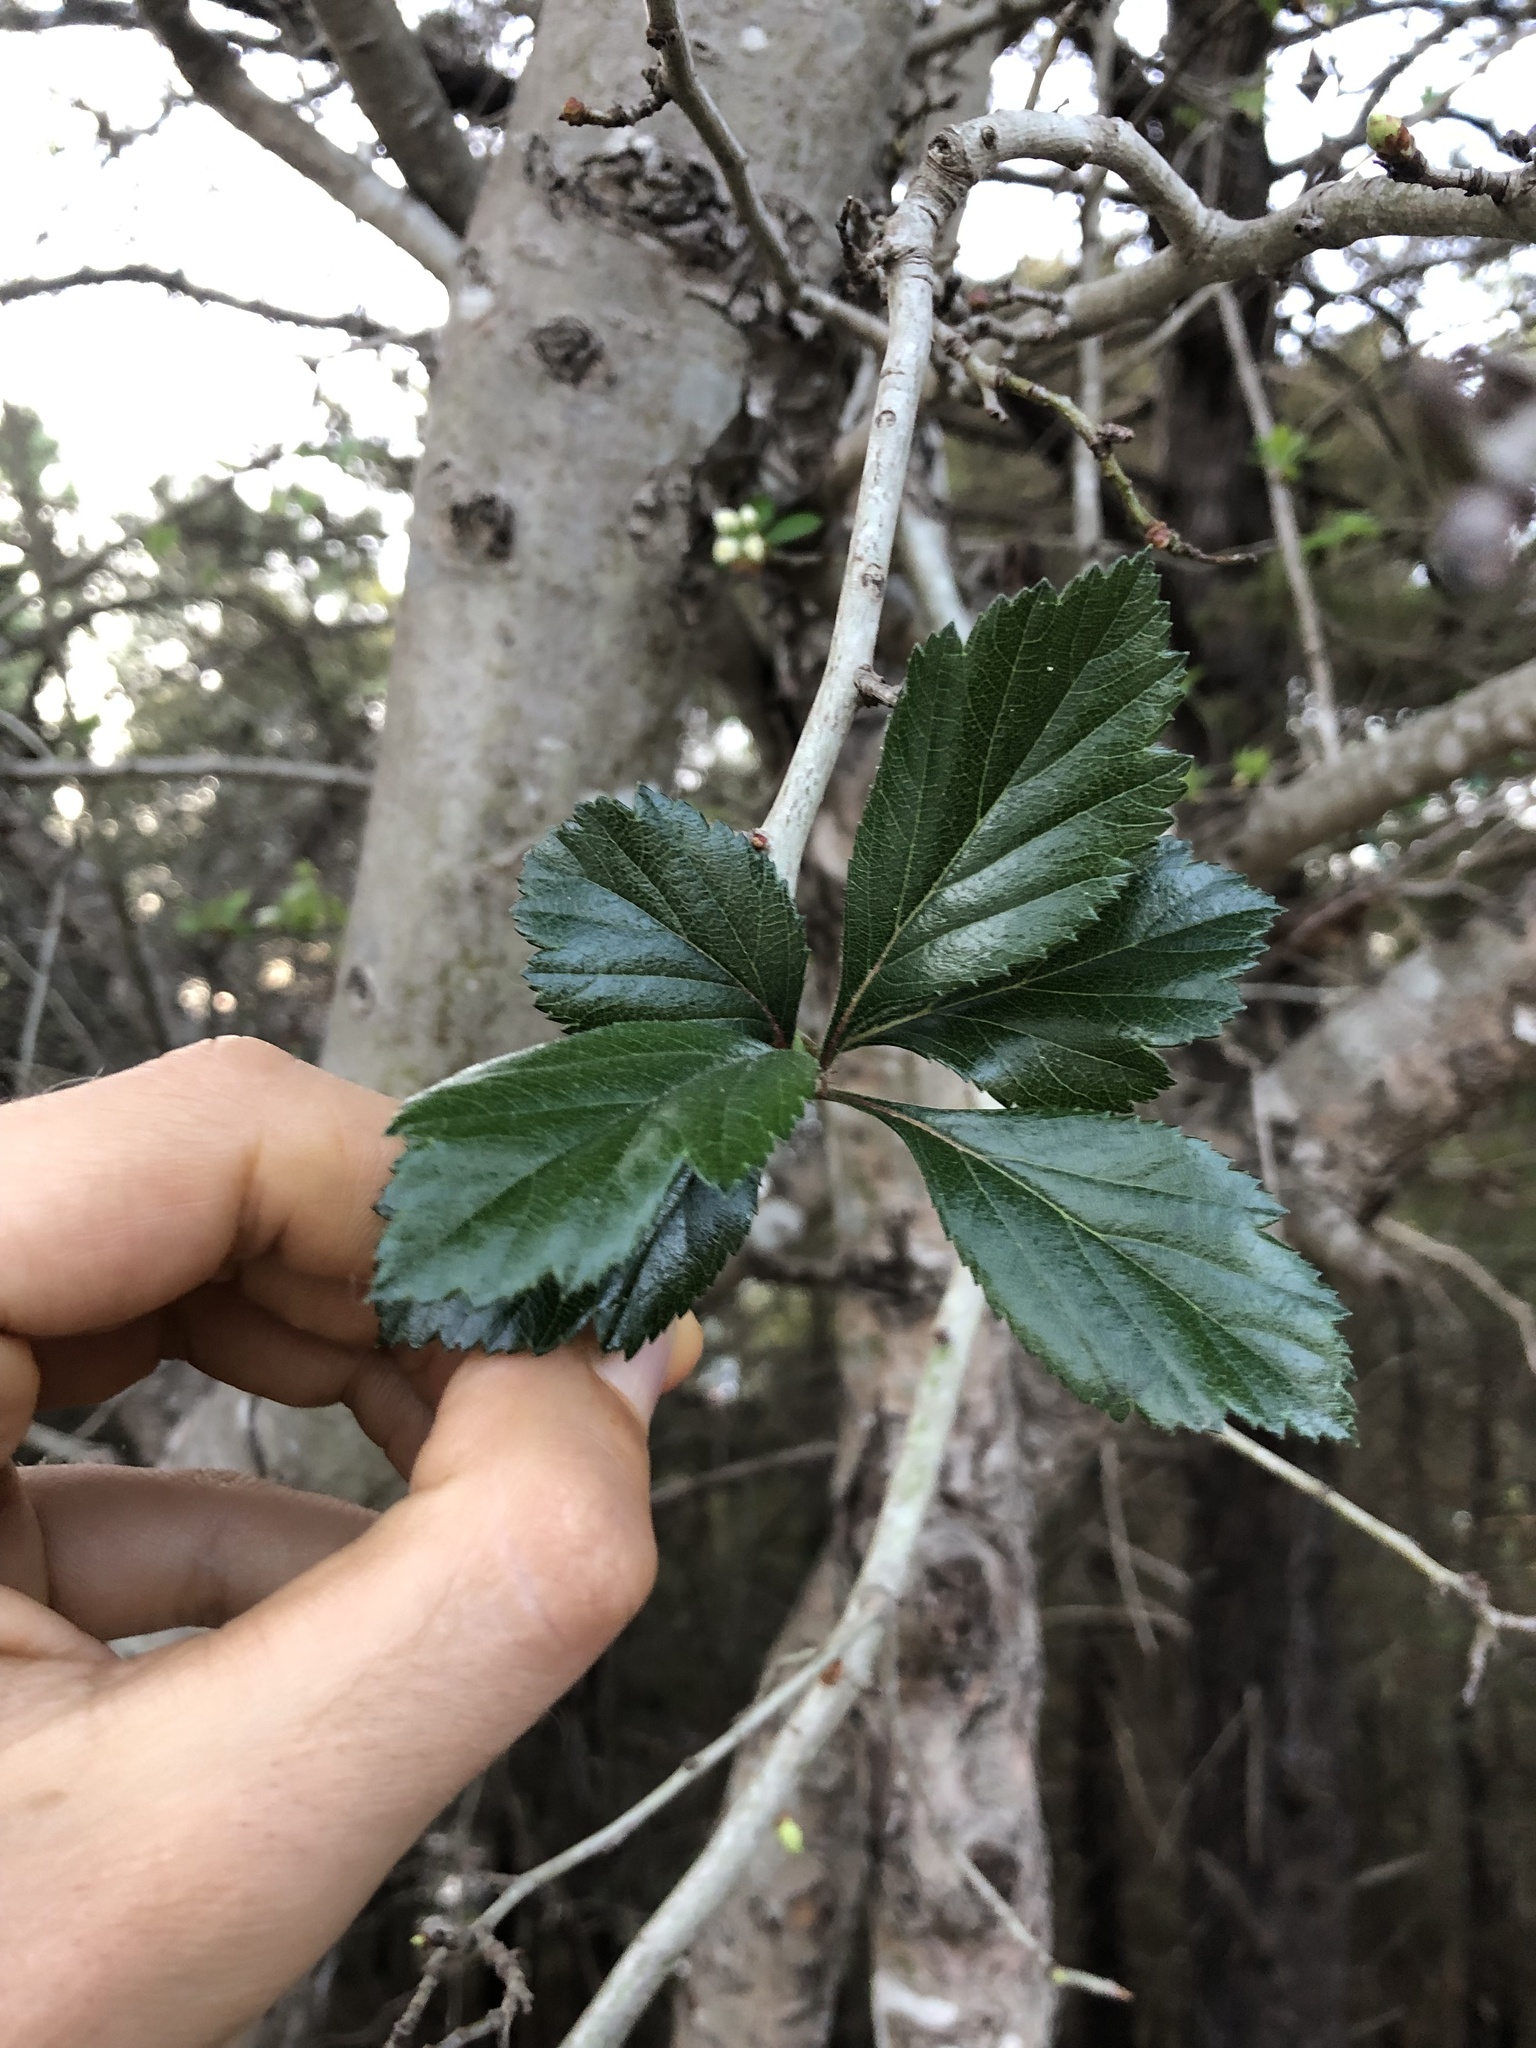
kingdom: Plantae
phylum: Tracheophyta
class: Magnoliopsida
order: Rosales
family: Rosaceae
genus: Crataegus
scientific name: Crataegus mexicana
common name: Mexican hawthorn
